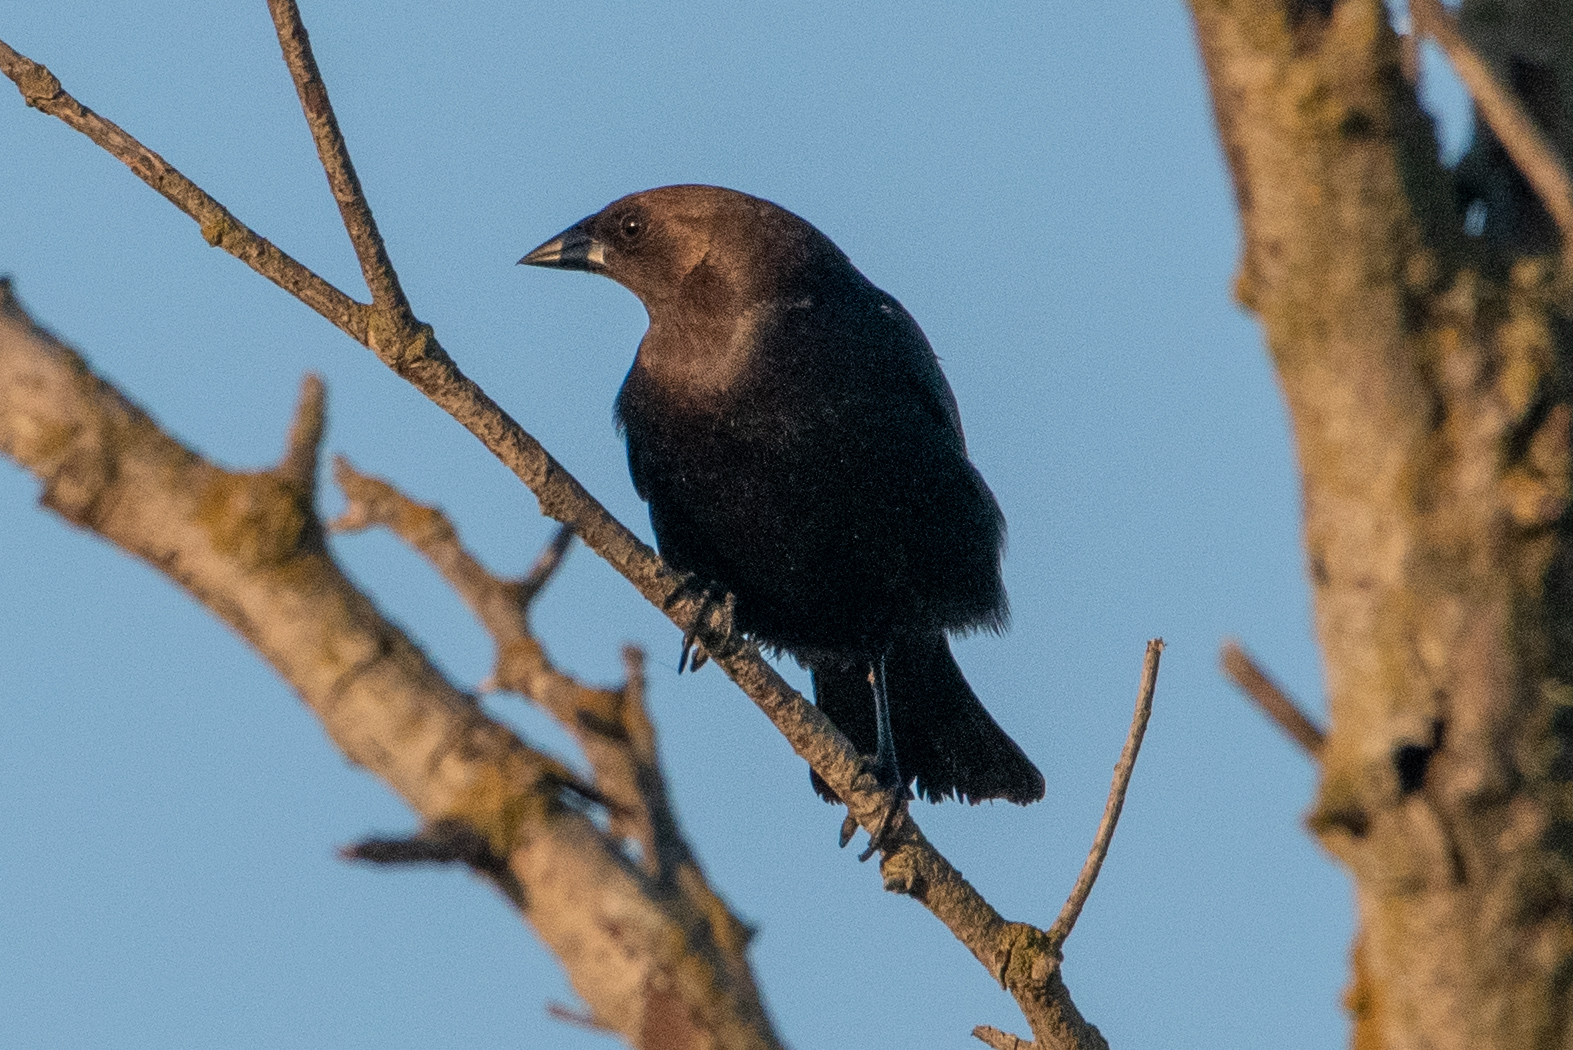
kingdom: Animalia
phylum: Chordata
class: Aves
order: Passeriformes
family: Icteridae
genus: Molothrus
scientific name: Molothrus ater
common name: Brown-headed cowbird
